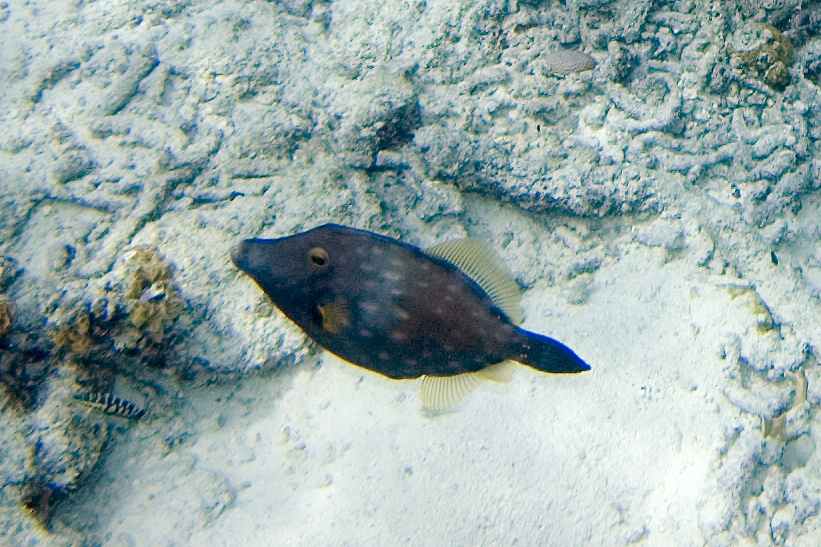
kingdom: Animalia
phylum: Chordata
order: Tetraodontiformes
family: Monacanthidae
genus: Cantherhines
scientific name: Cantherhines macrocerus
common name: Whitespotted filefish
